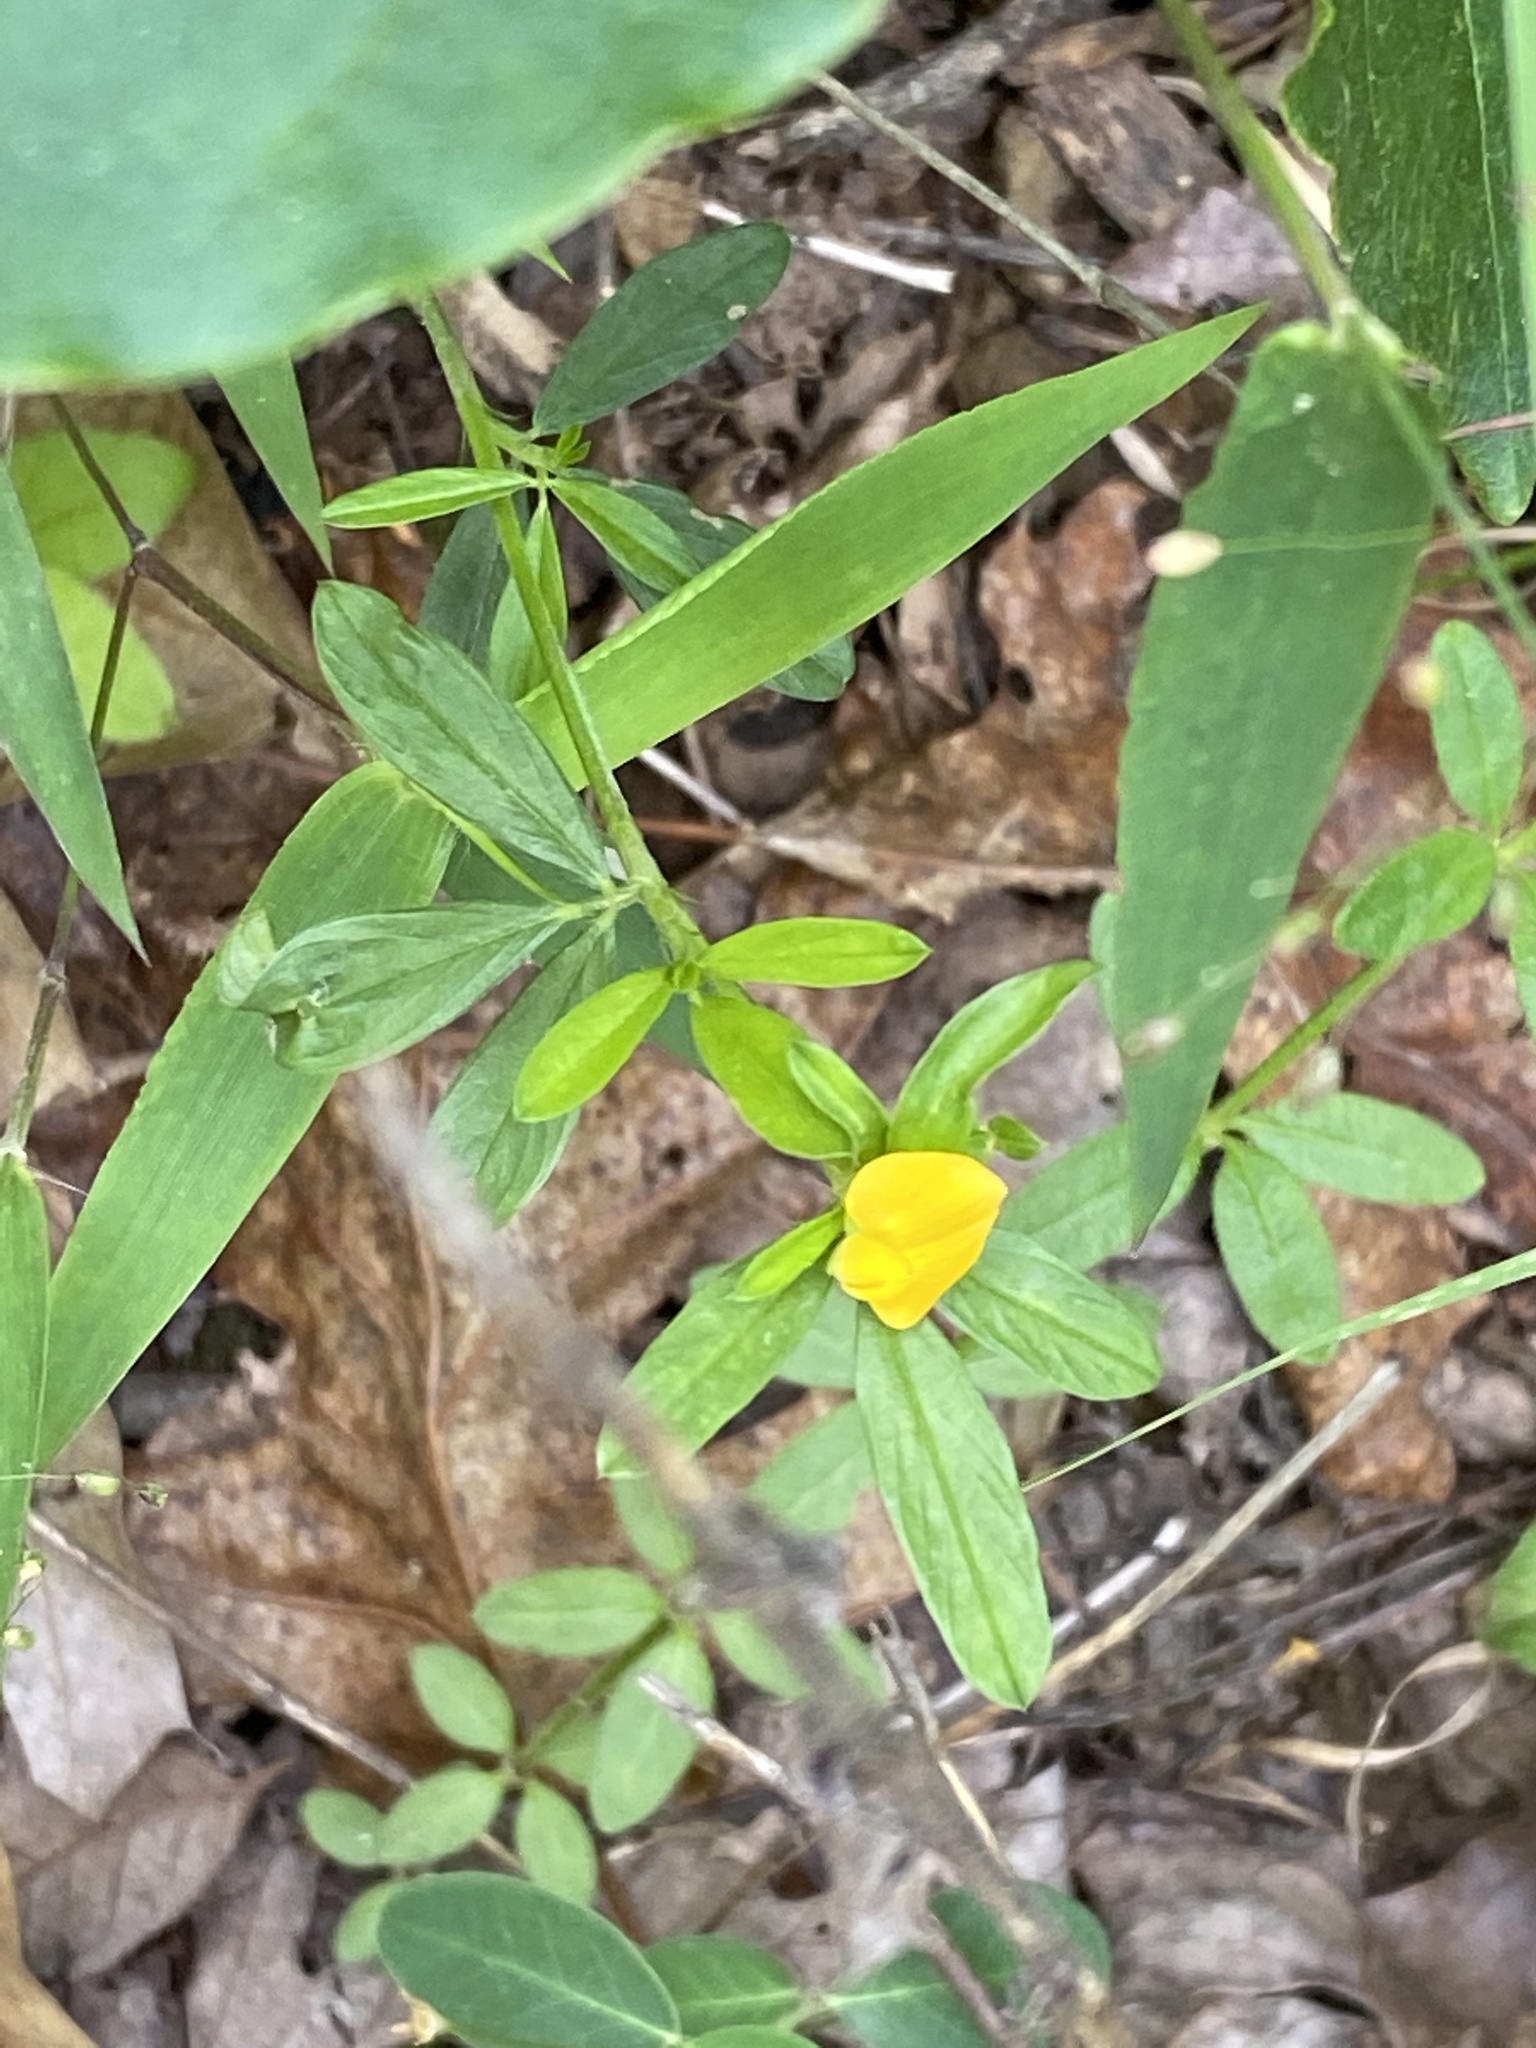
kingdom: Plantae
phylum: Tracheophyta
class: Magnoliopsida
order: Fabales
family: Fabaceae
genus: Stylosanthes
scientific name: Stylosanthes biflora
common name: Two-flower pencil-flower
